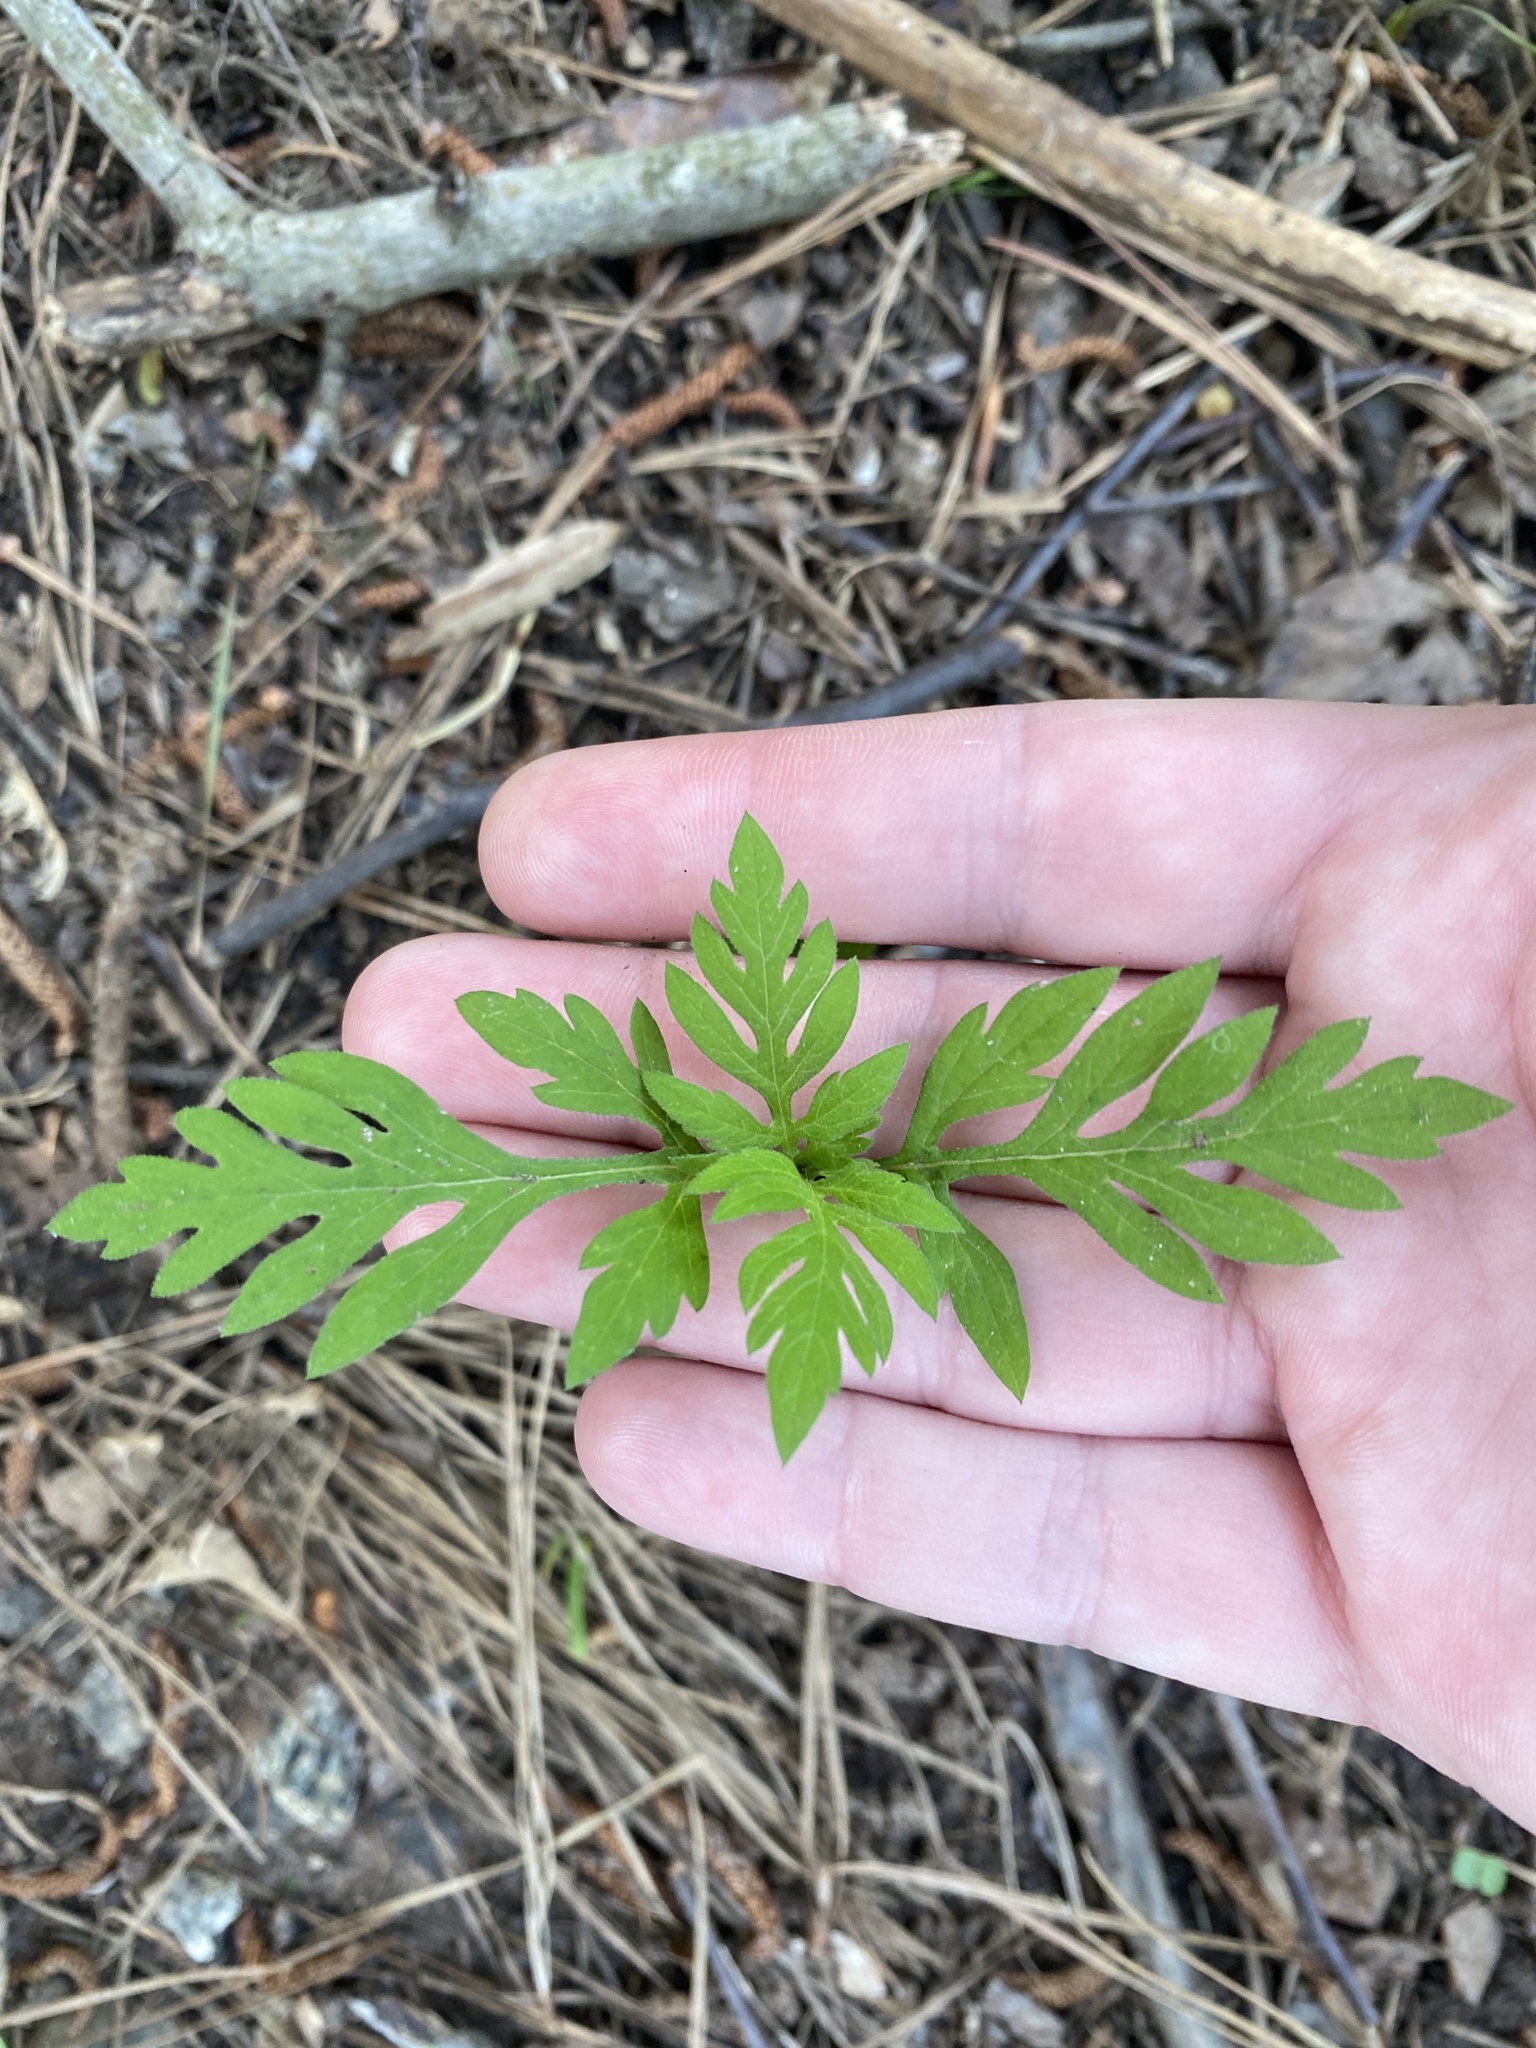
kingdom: Plantae
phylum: Tracheophyta
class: Magnoliopsida
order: Asterales
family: Asteraceae
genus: Ambrosia
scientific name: Ambrosia artemisiifolia
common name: Annual ragweed
